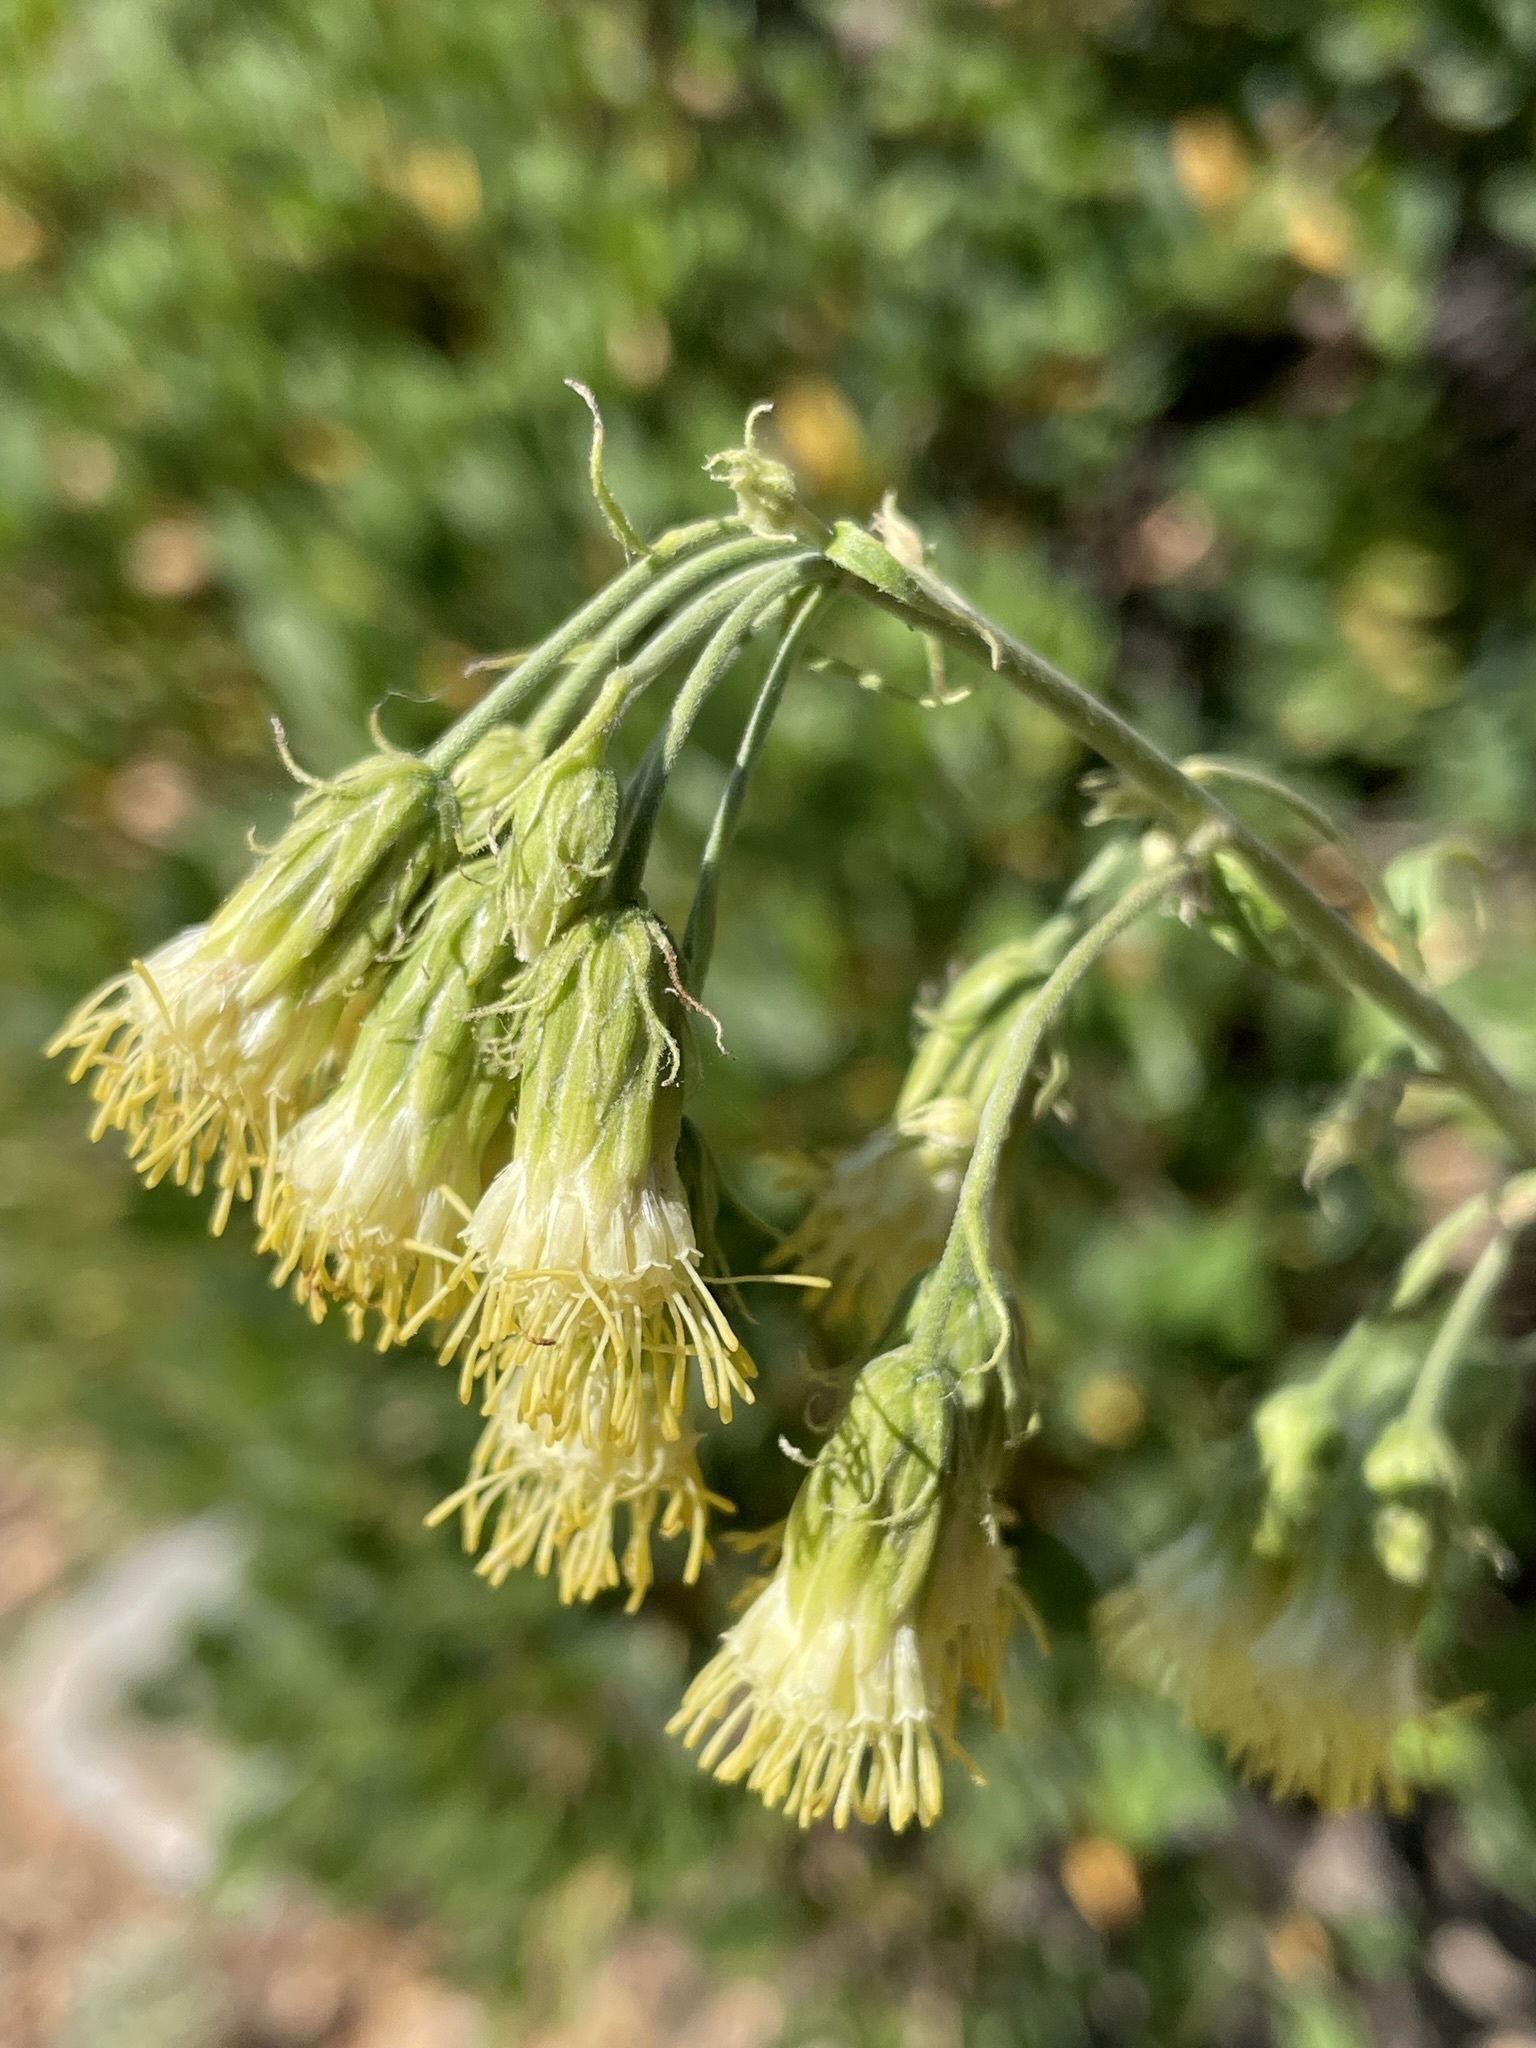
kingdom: Plantae
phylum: Tracheophyta
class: Magnoliopsida
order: Asterales
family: Asteraceae
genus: Brickellia
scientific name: Brickellia grandiflora
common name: Large-flowered brickellia
